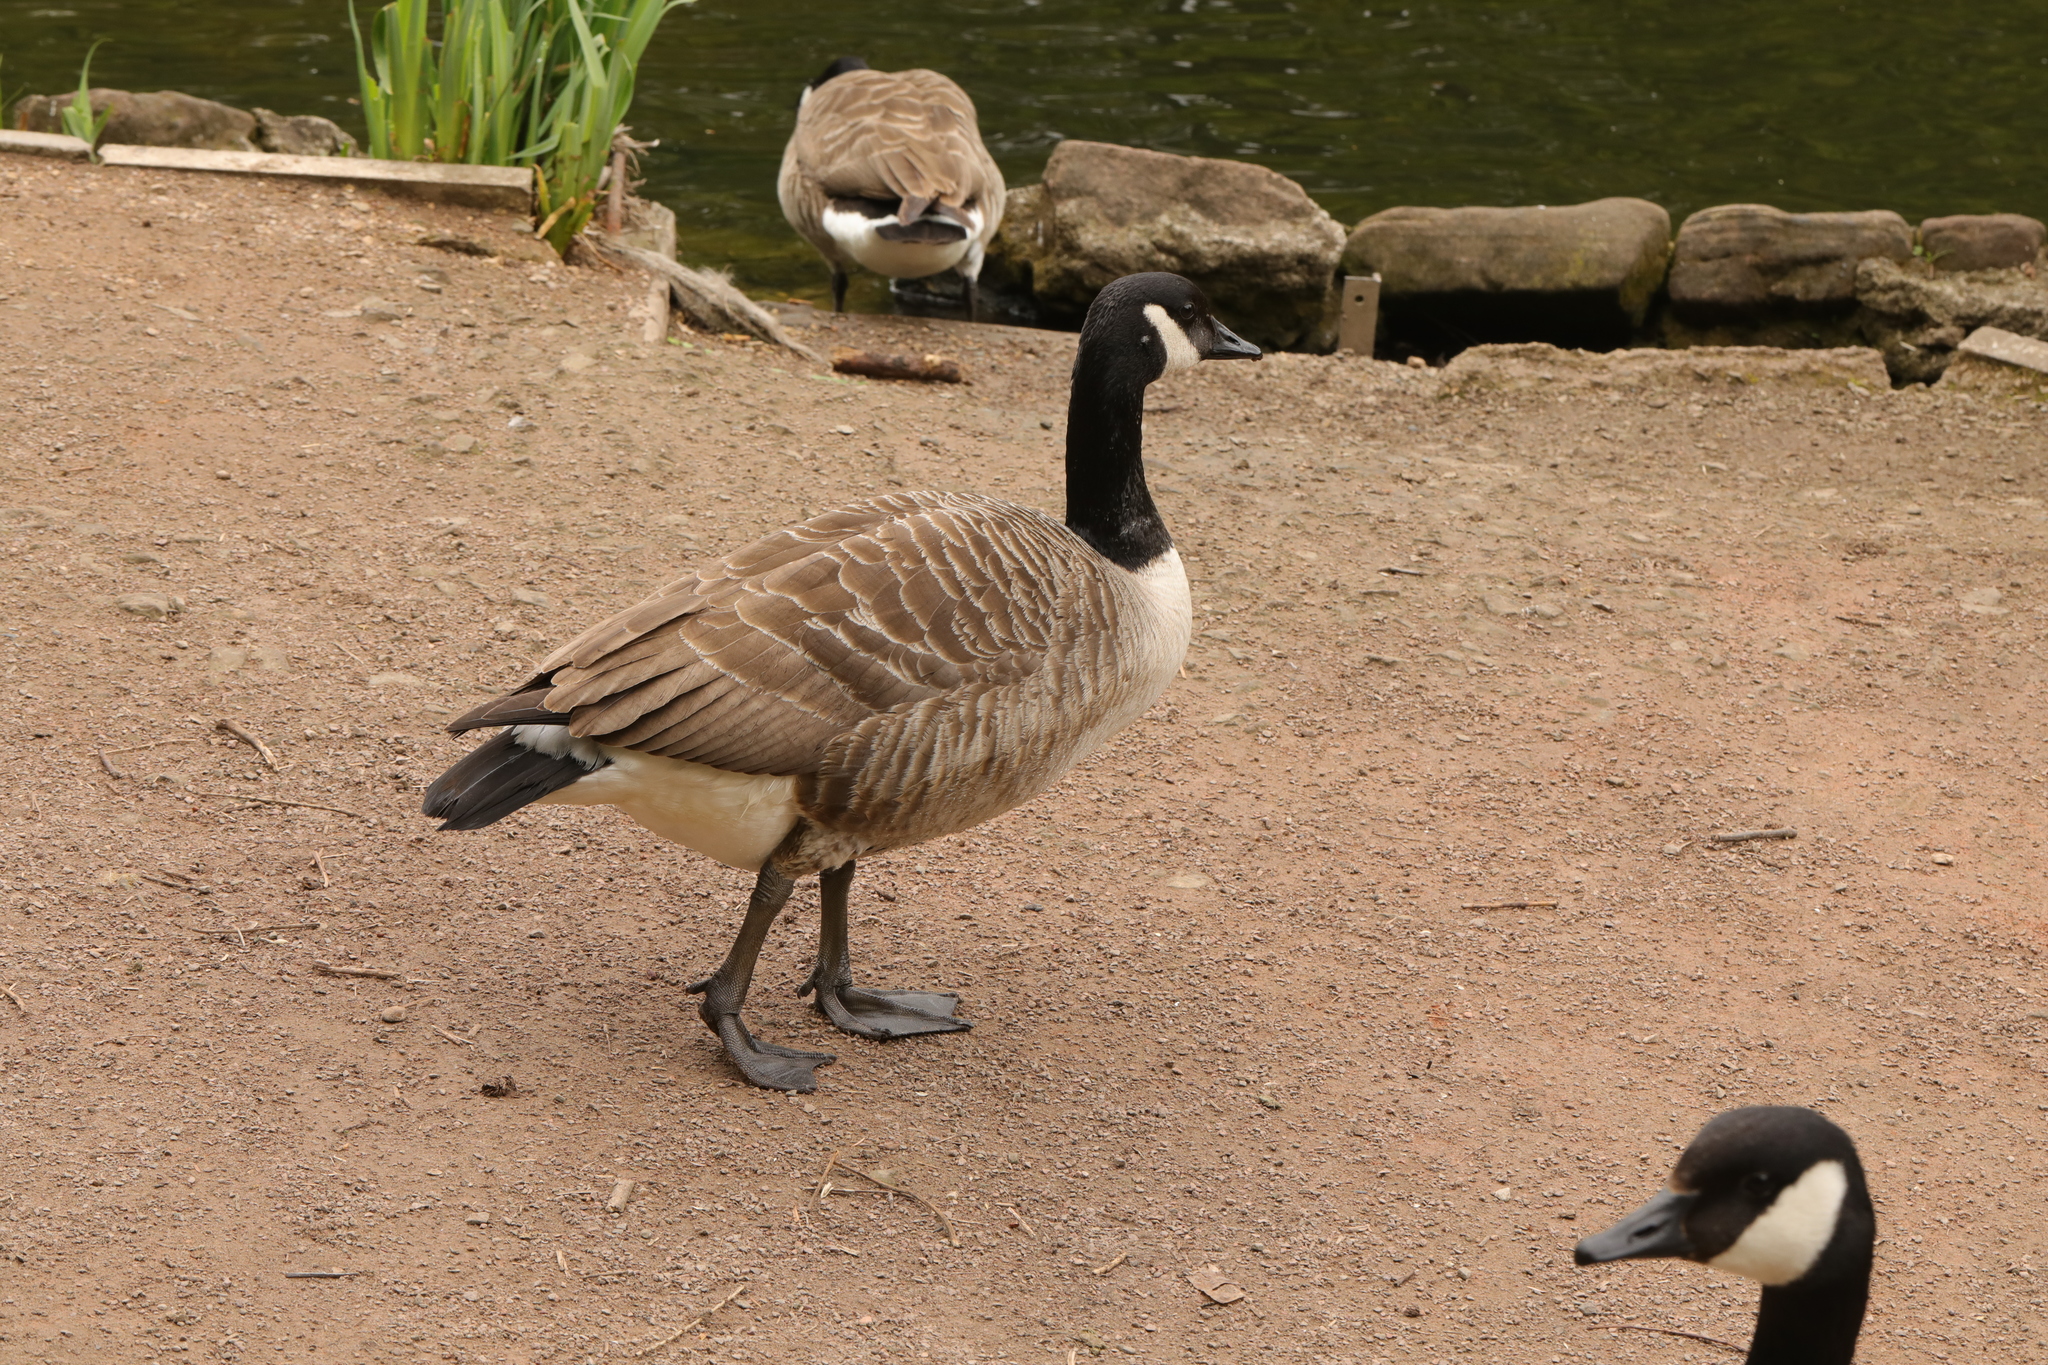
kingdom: Animalia
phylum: Chordata
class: Aves
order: Anseriformes
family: Anatidae
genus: Branta
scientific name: Branta canadensis
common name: Canada goose
